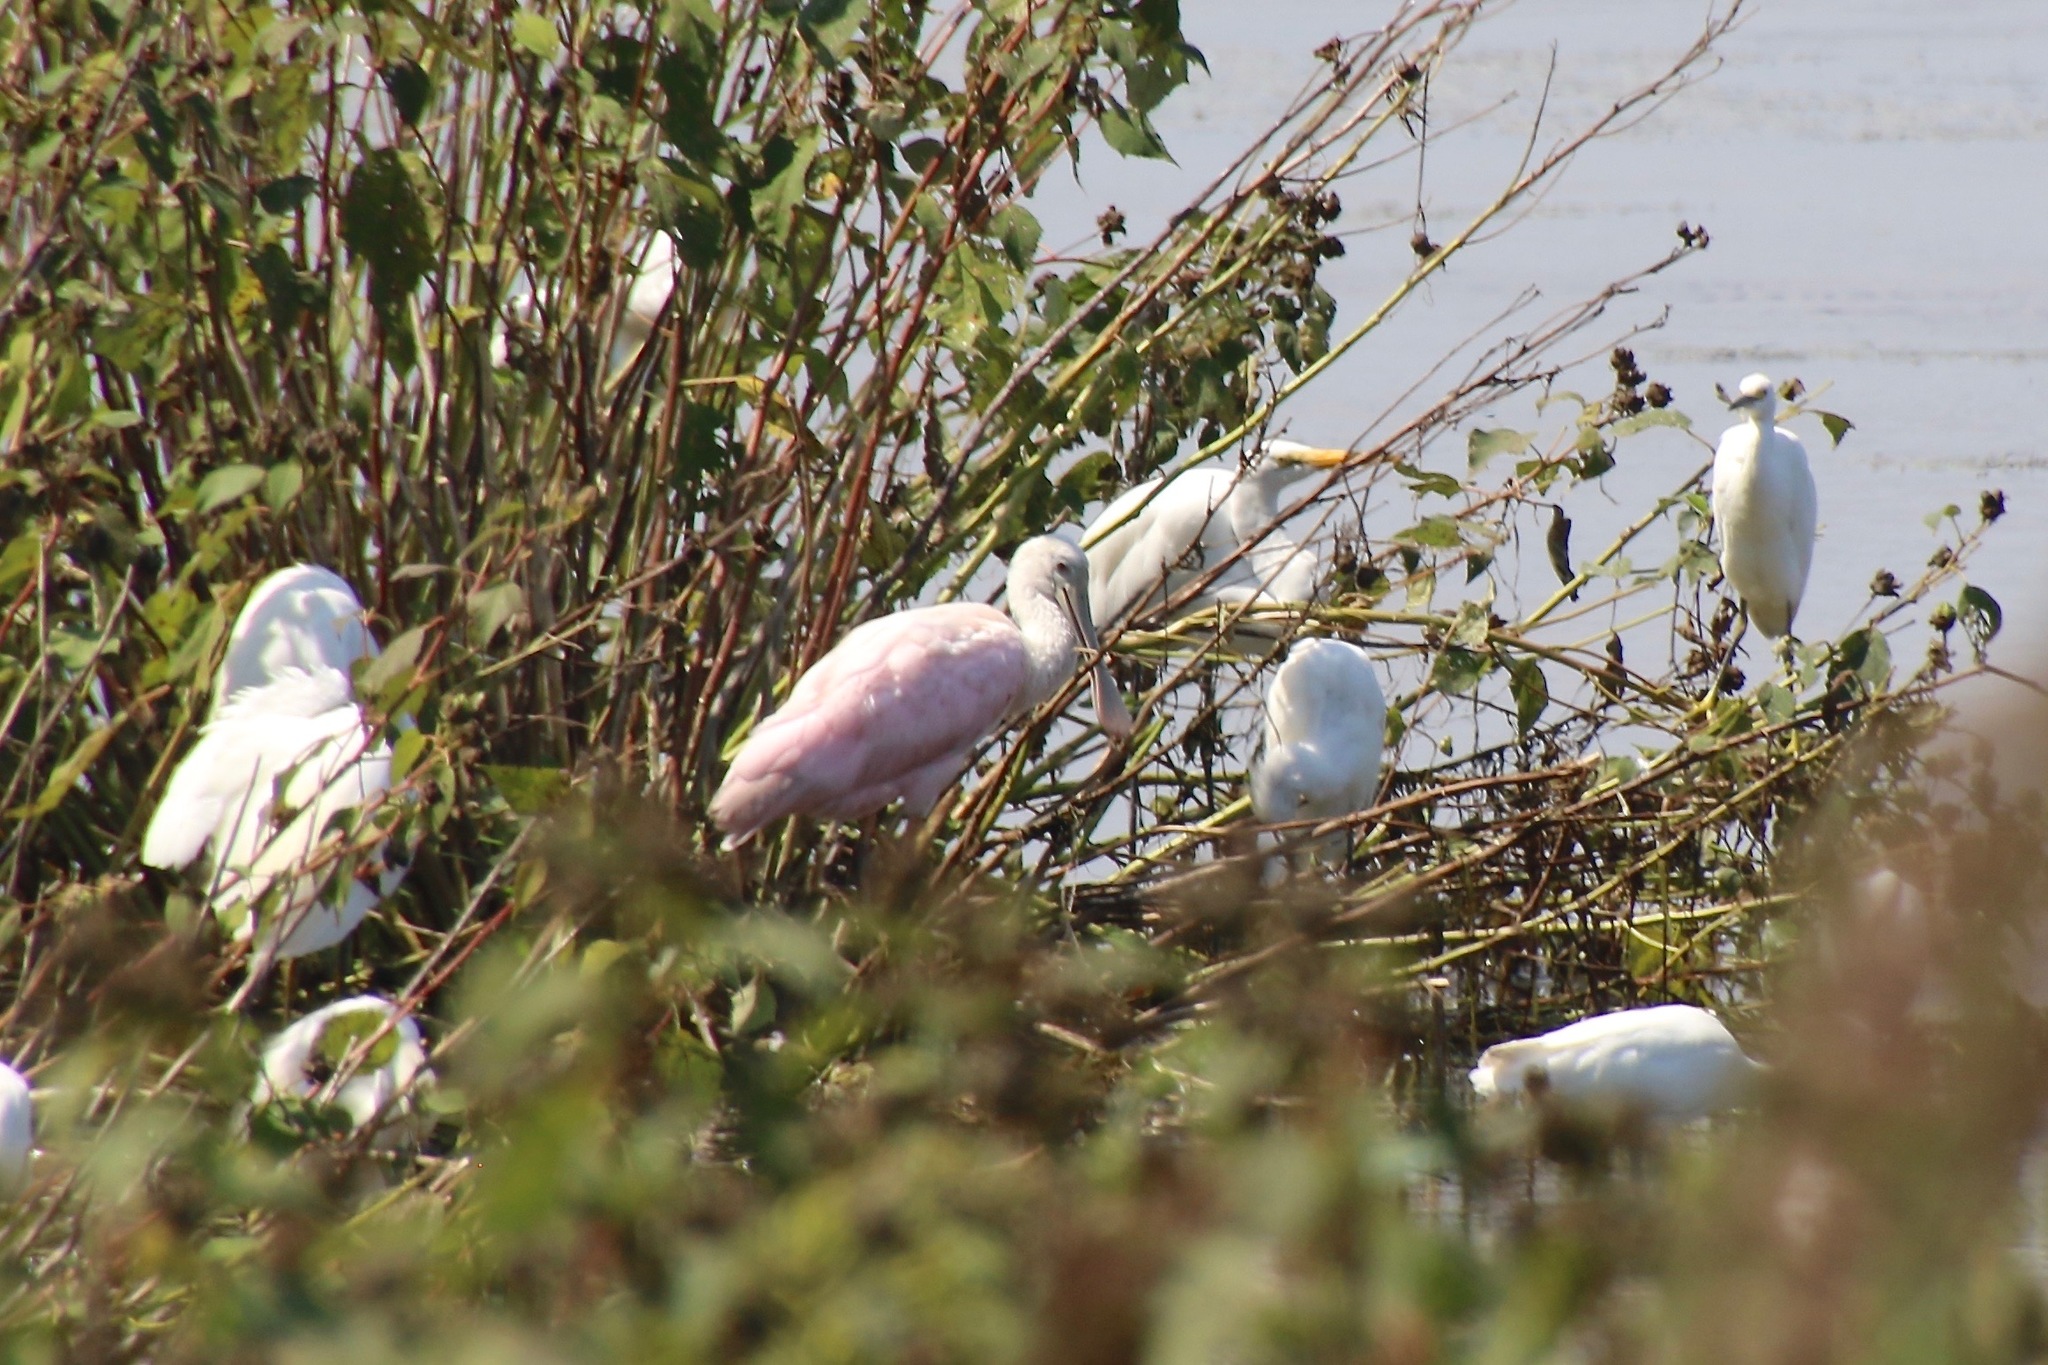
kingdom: Animalia
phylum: Chordata
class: Aves
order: Pelecaniformes
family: Threskiornithidae
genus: Platalea
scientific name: Platalea ajaja
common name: Roseate spoonbill
